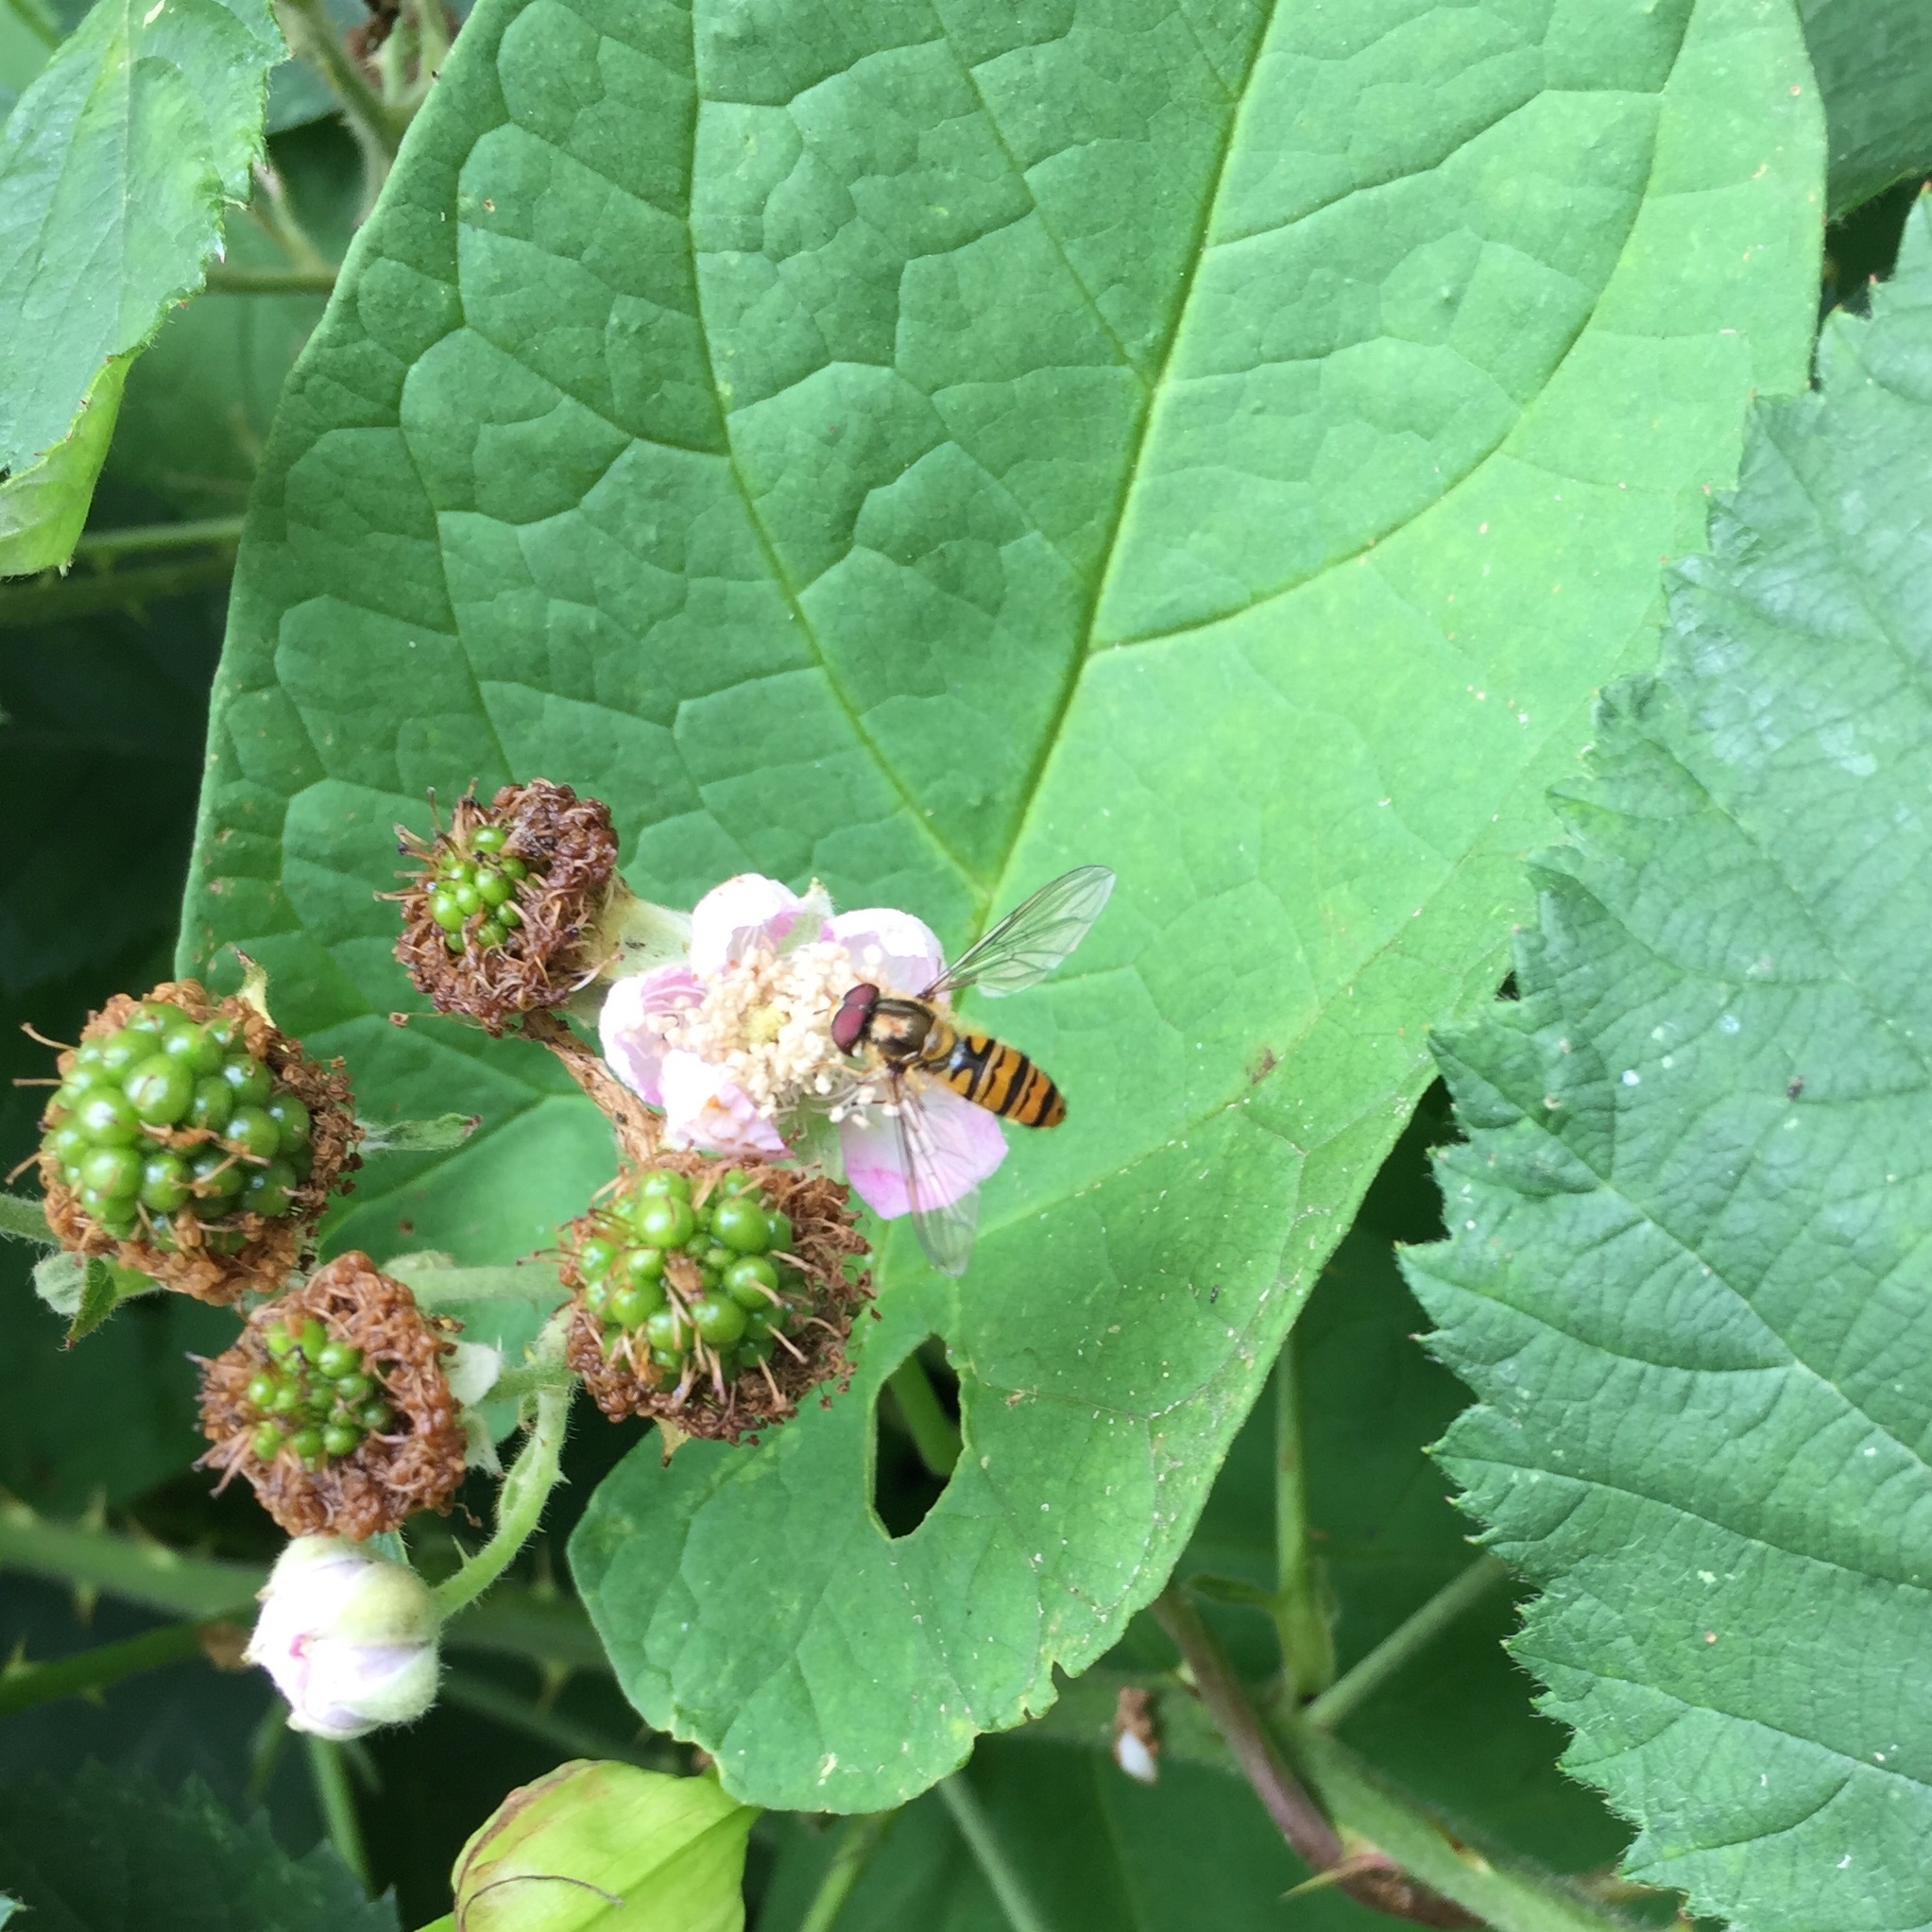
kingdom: Animalia
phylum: Arthropoda
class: Insecta
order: Diptera
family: Syrphidae
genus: Episyrphus
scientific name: Episyrphus balteatus
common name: Marmalade hoverfly
